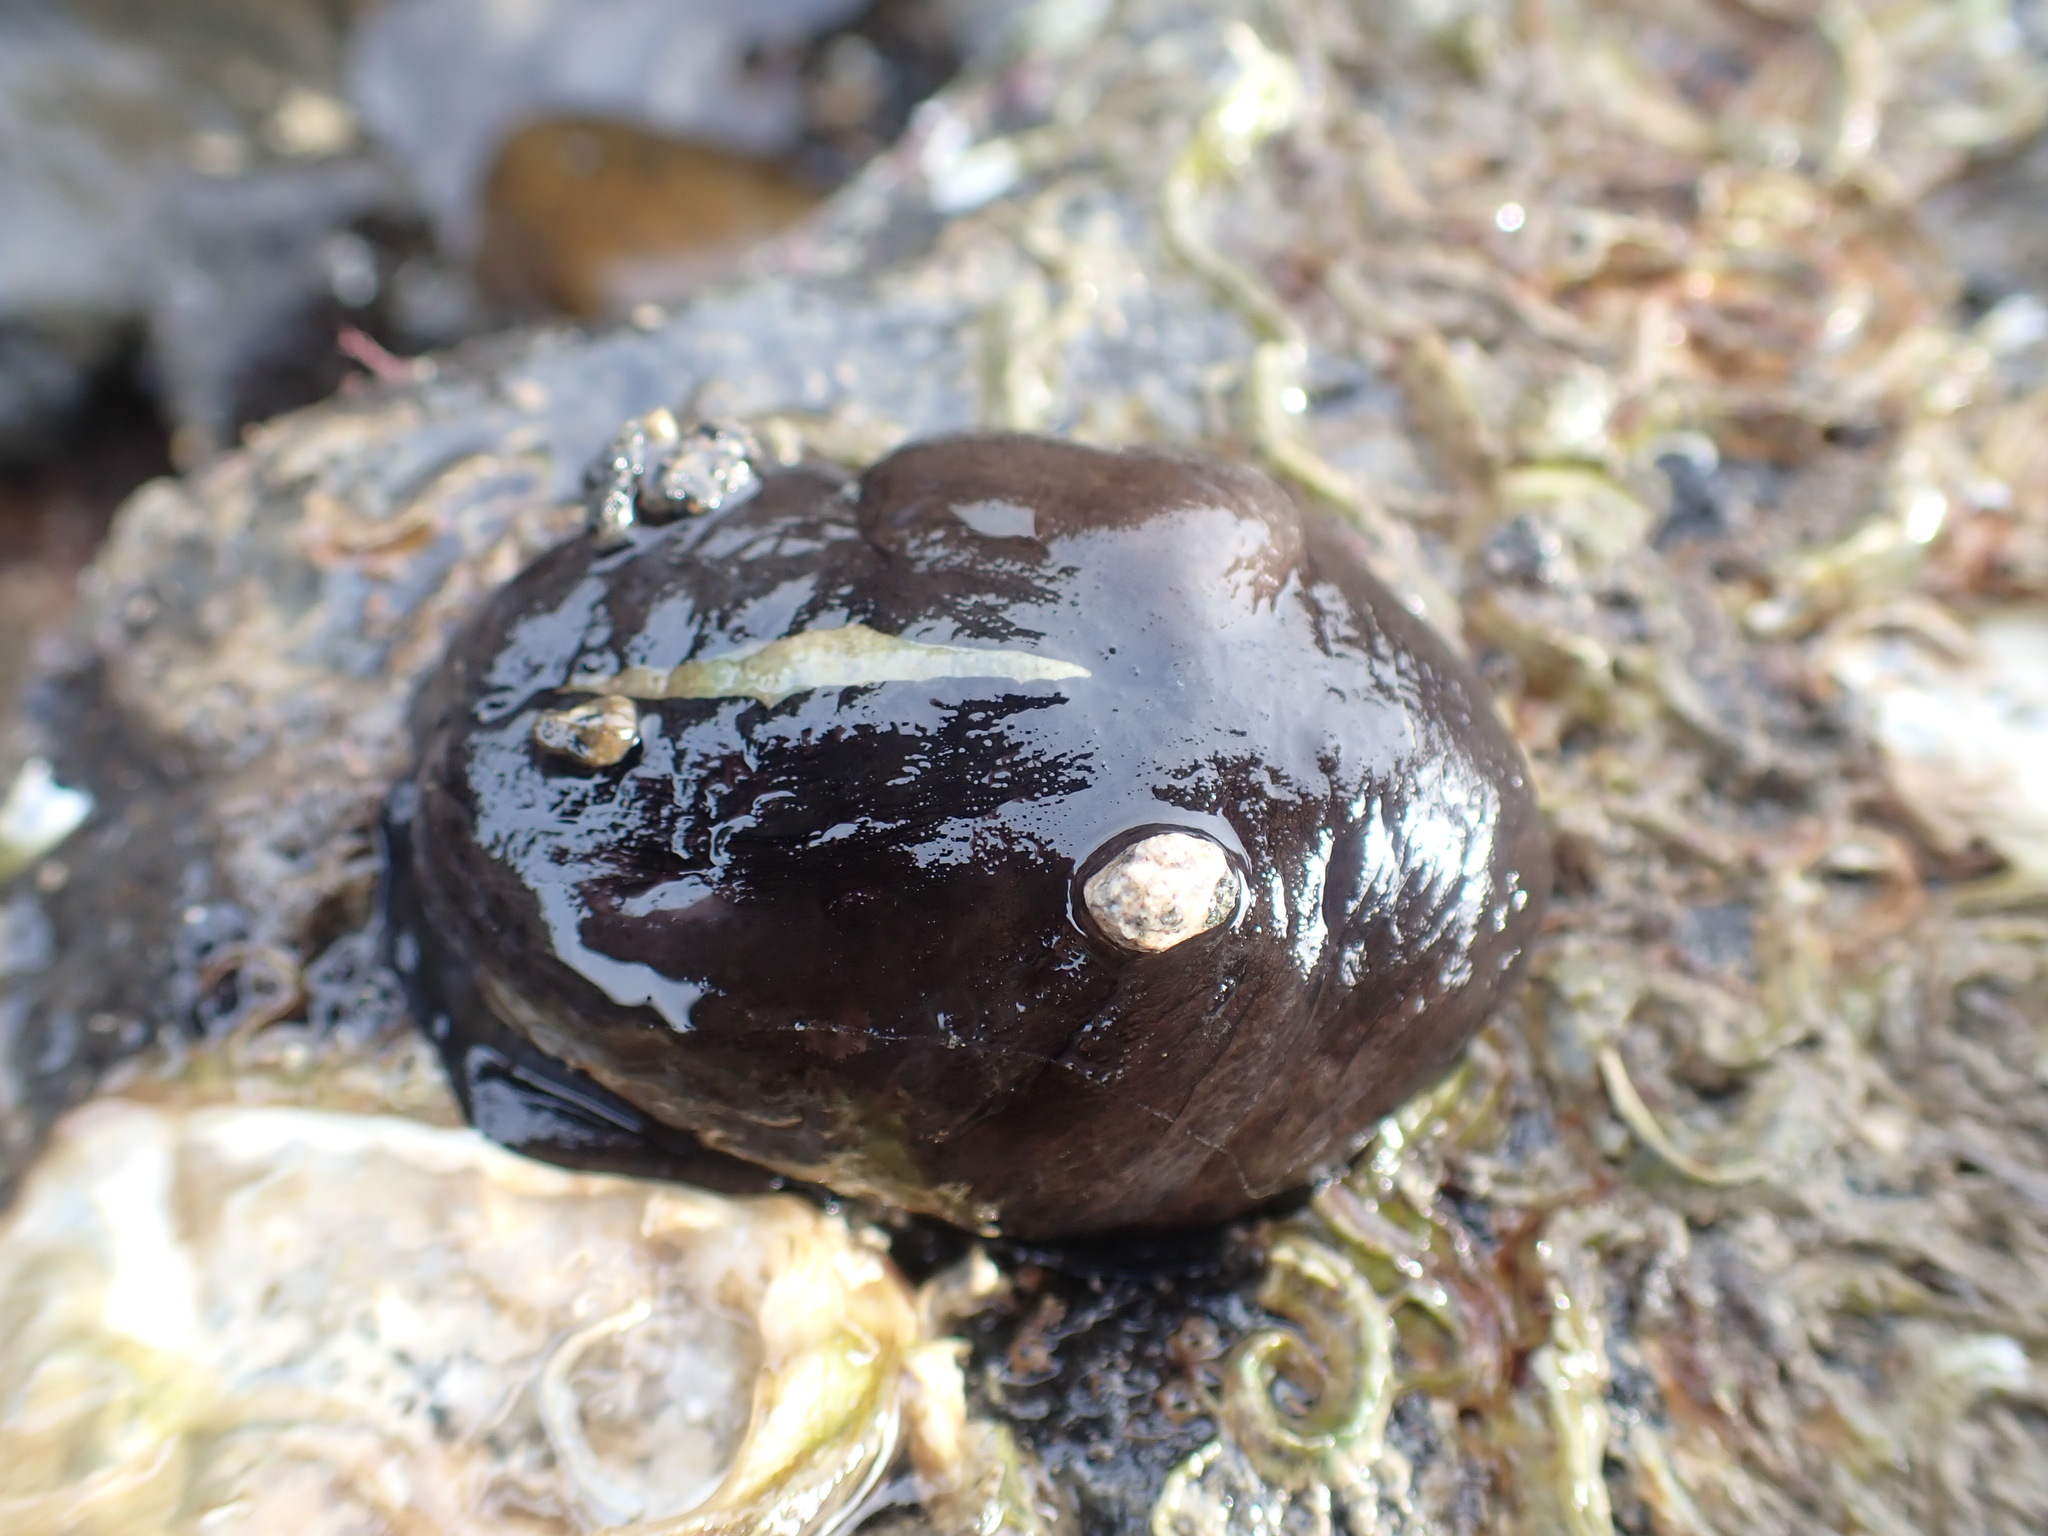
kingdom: Animalia
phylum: Mollusca
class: Gastropoda
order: Lepetellida
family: Fissurellidae
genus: Scutus
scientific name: Scutus breviculus
